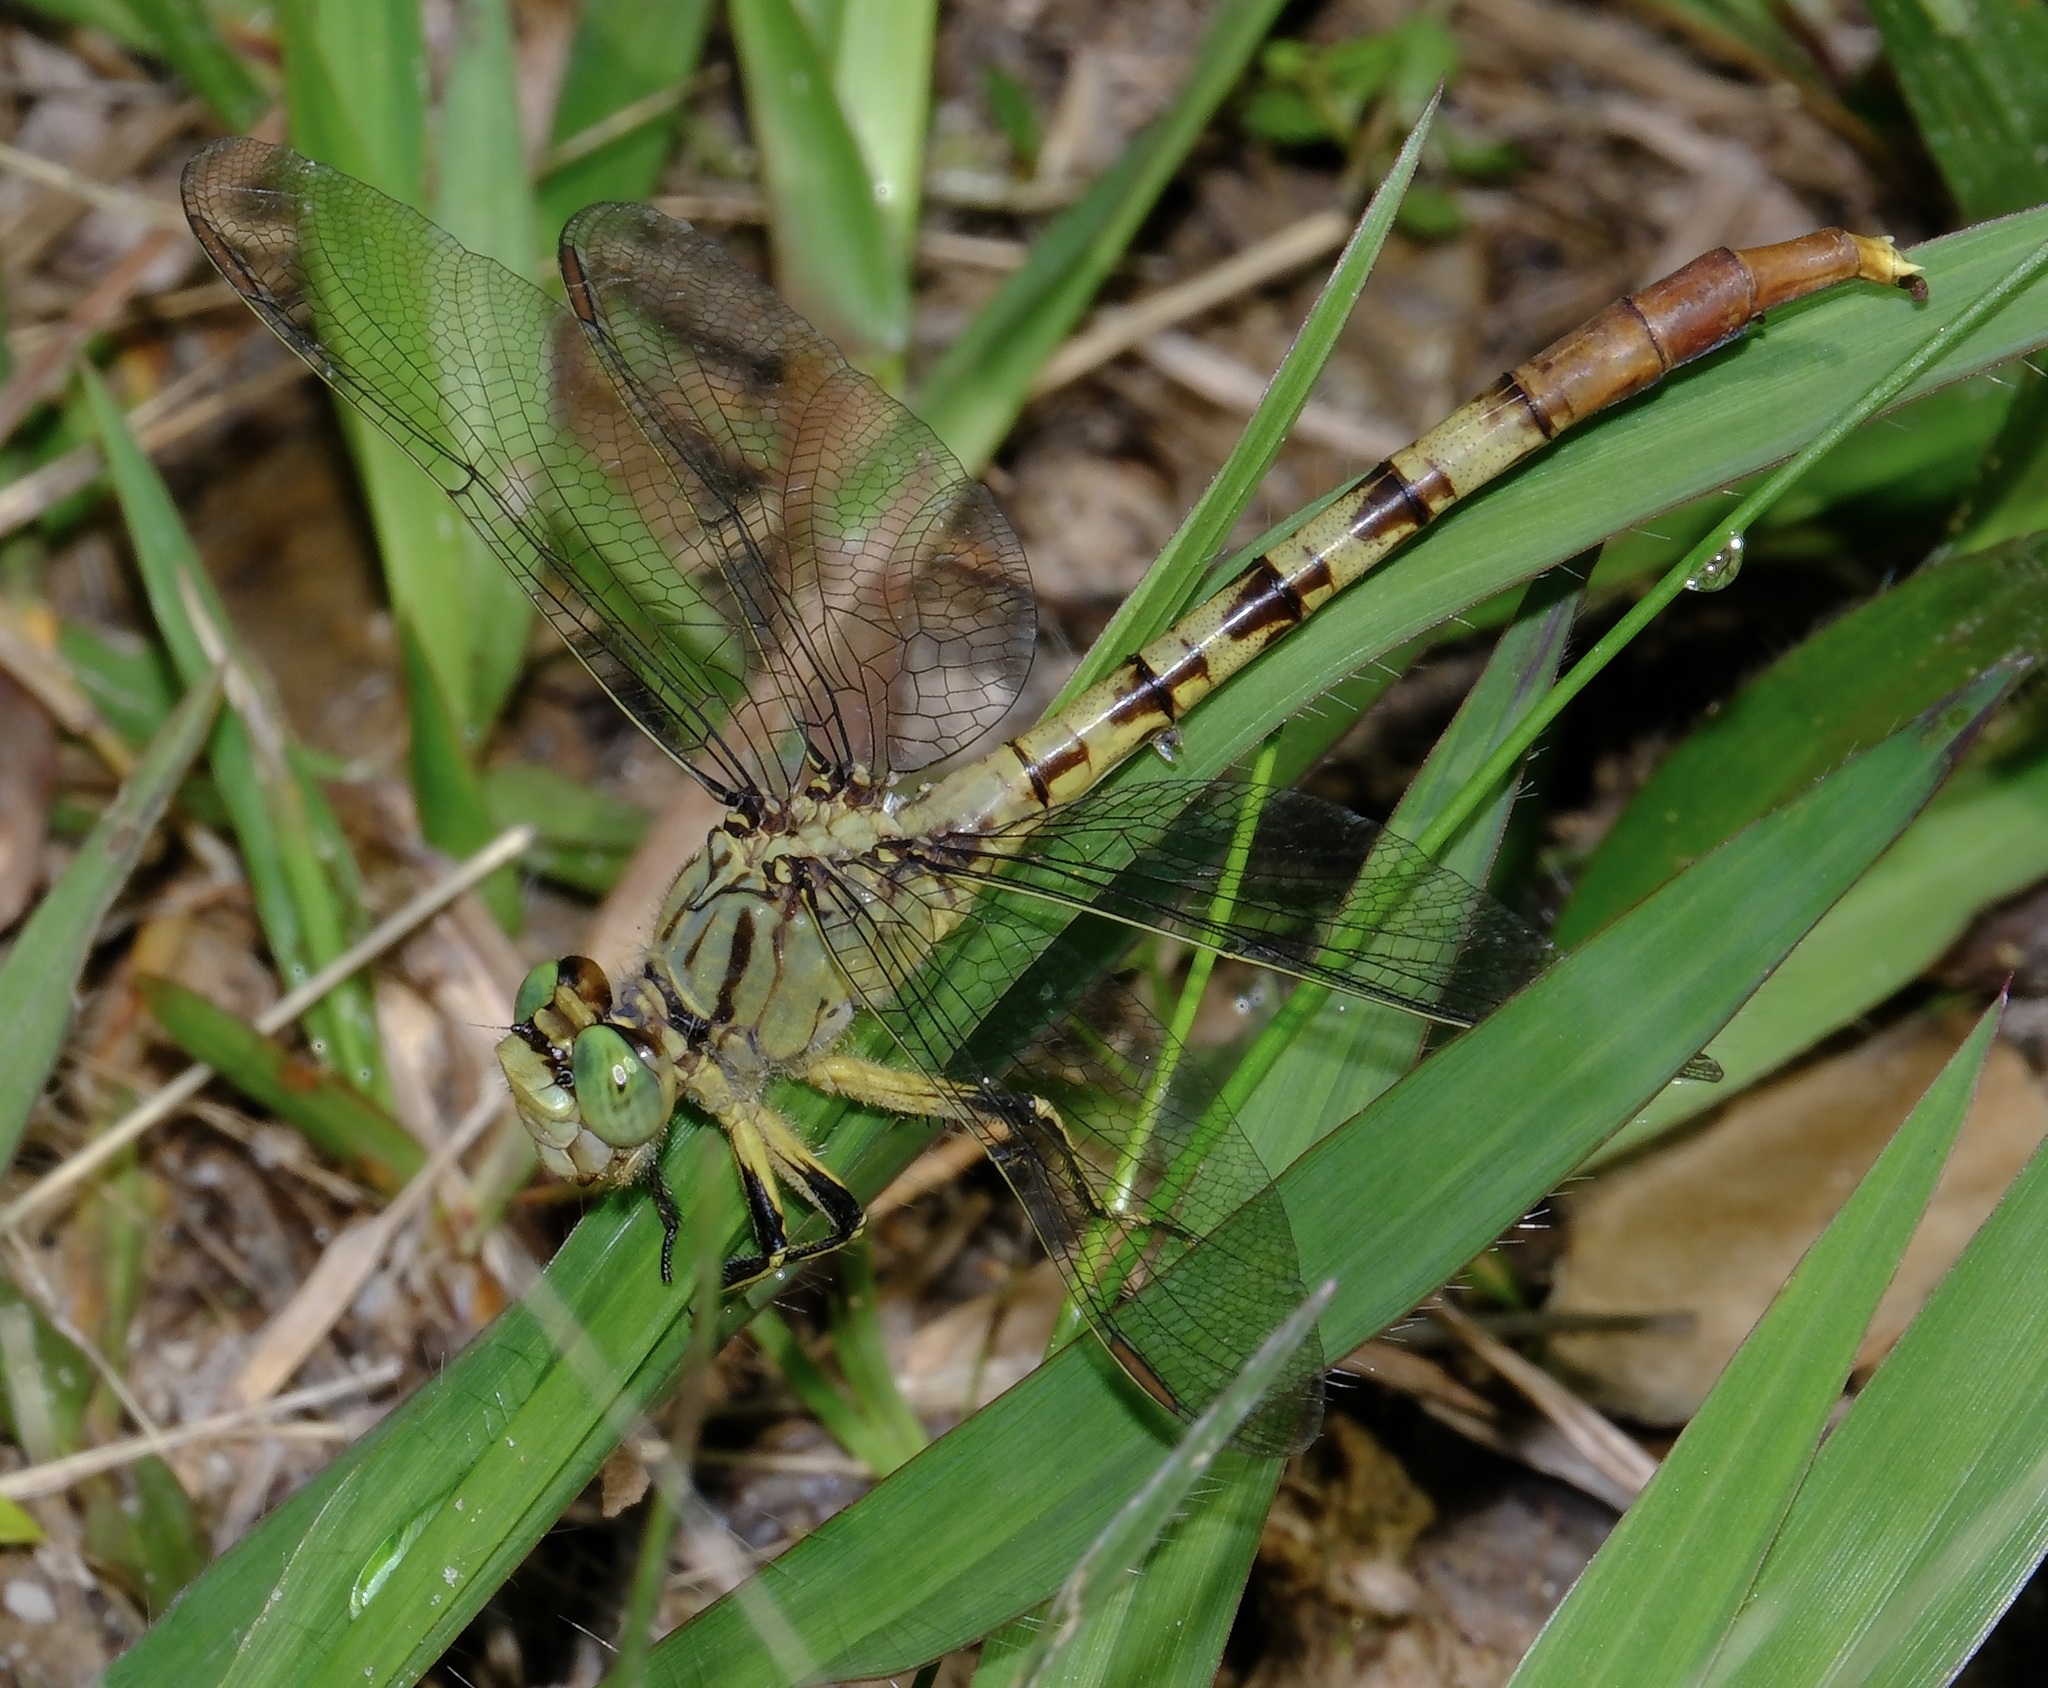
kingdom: Animalia
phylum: Arthropoda
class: Insecta
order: Odonata
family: Gomphidae
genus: Arigomphus
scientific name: Arigomphus submedianus
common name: Jade clubtail
